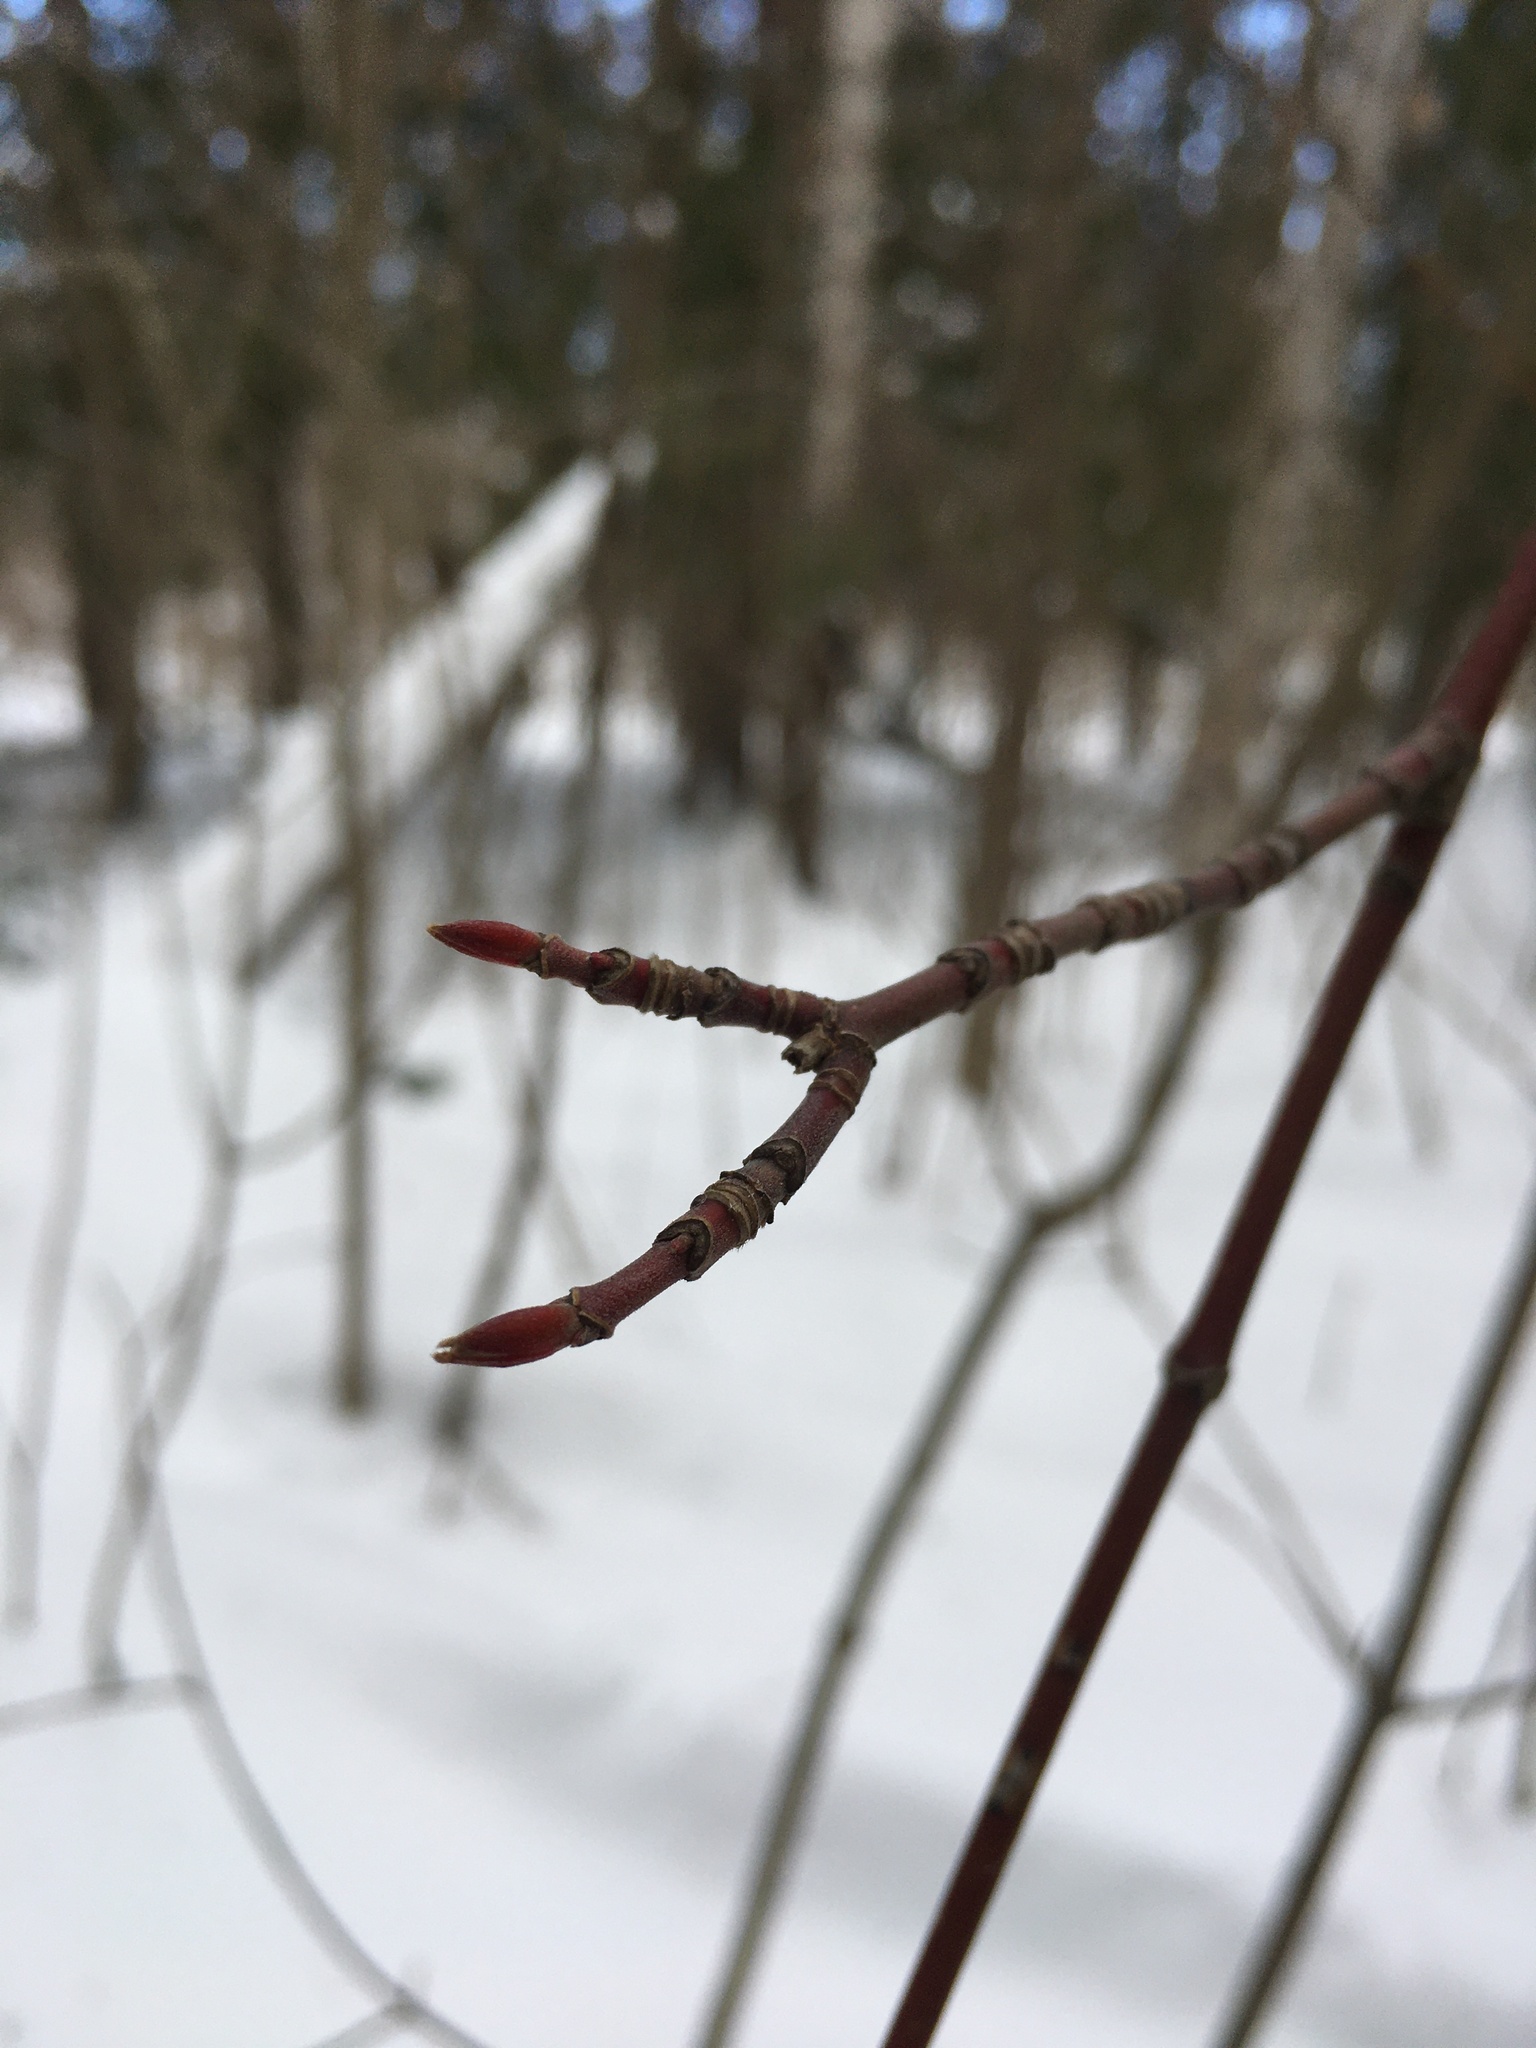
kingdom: Plantae
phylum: Tracheophyta
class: Magnoliopsida
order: Sapindales
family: Sapindaceae
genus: Acer
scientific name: Acer spicatum
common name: Mountain maple
